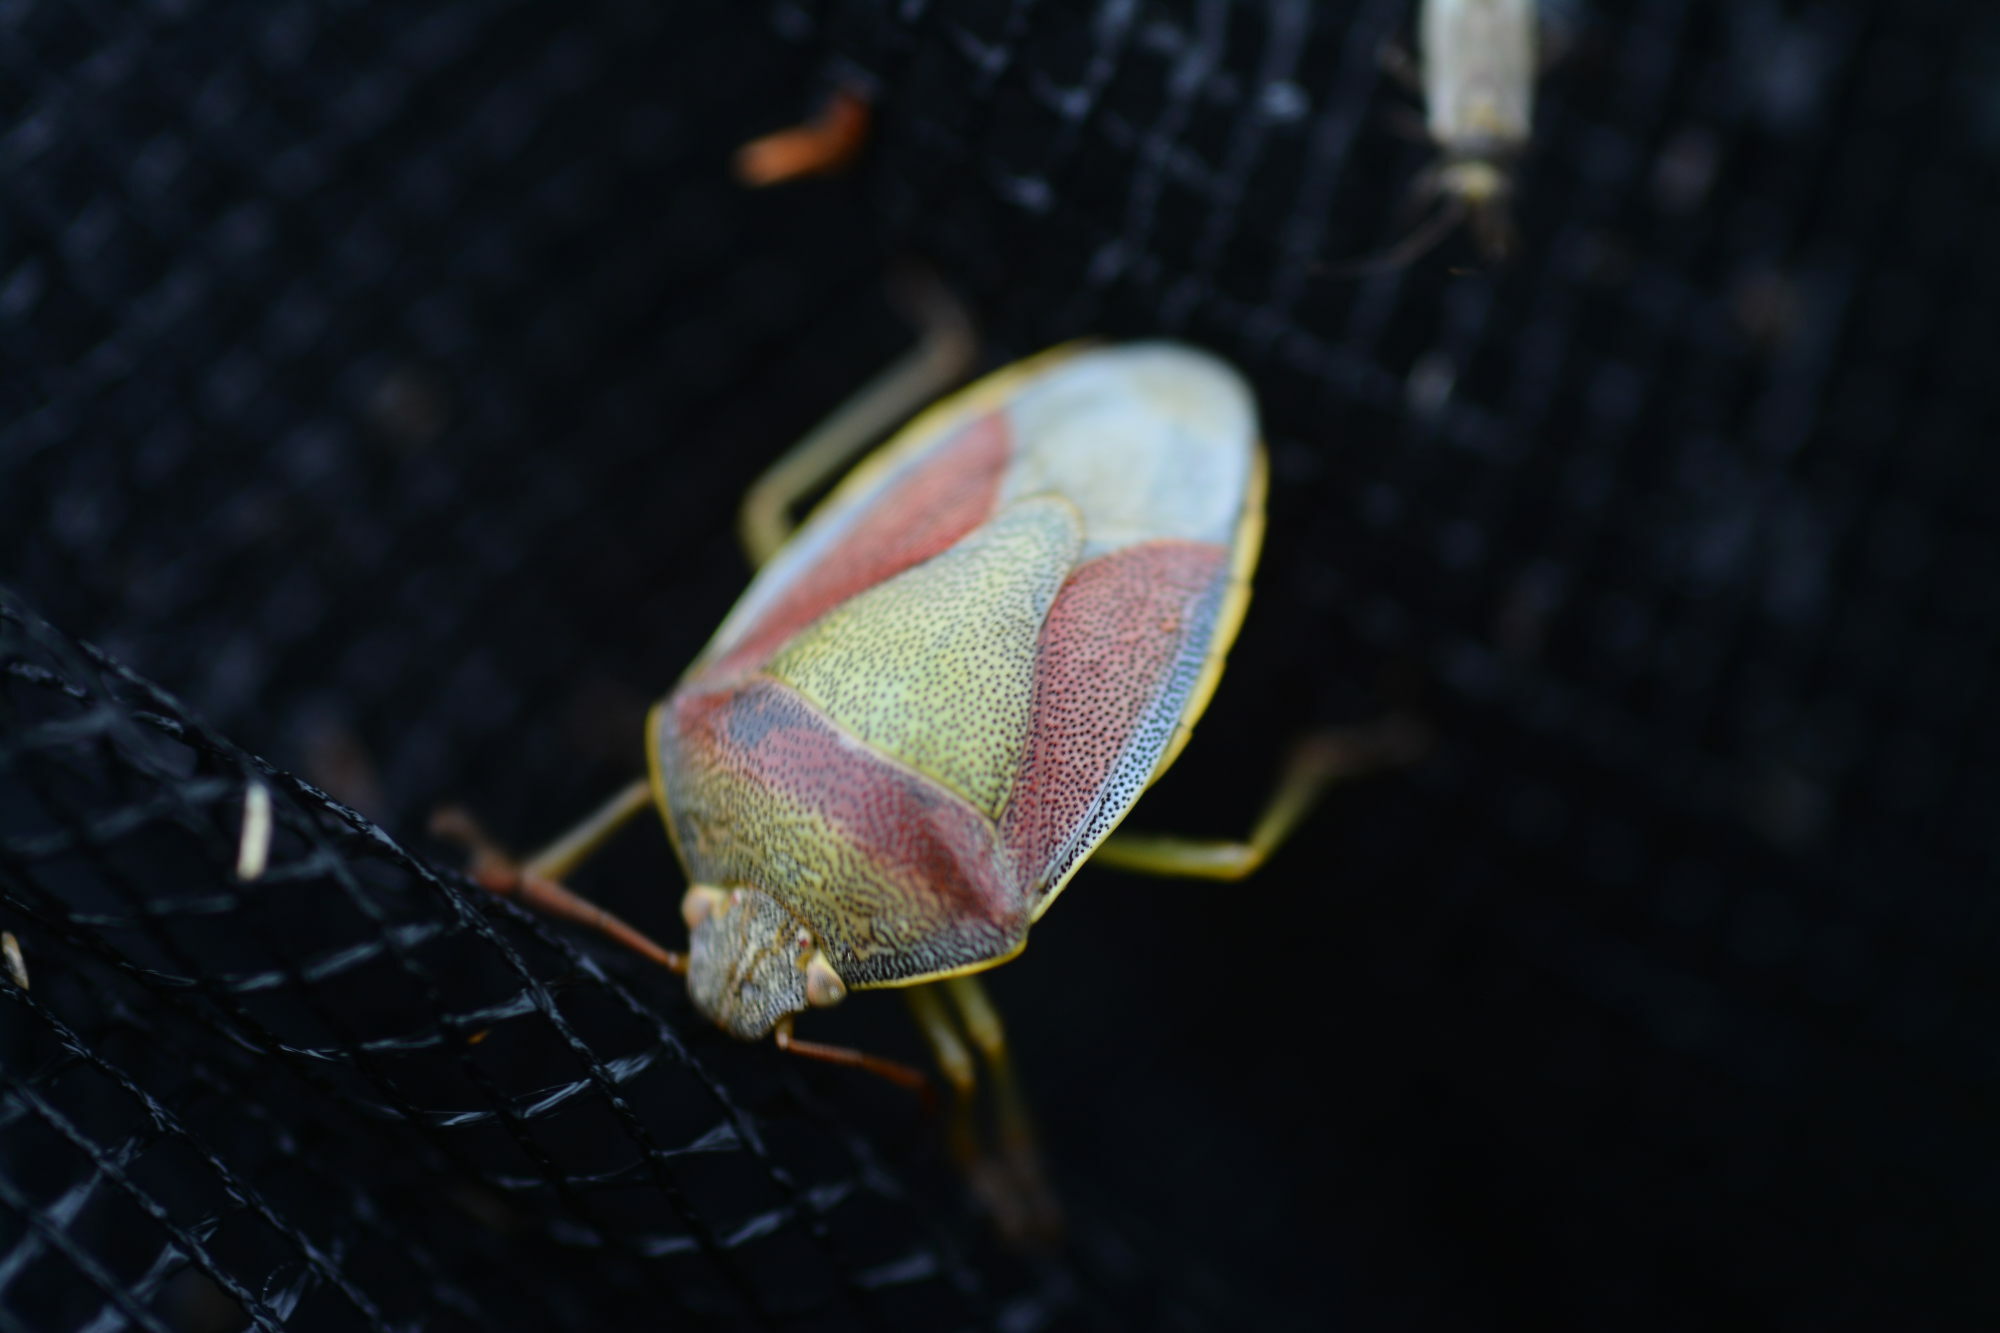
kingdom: Animalia
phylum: Arthropoda
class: Insecta
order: Hemiptera
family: Pentatomidae
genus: Piezodorus
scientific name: Piezodorus lituratus
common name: Stink bug
